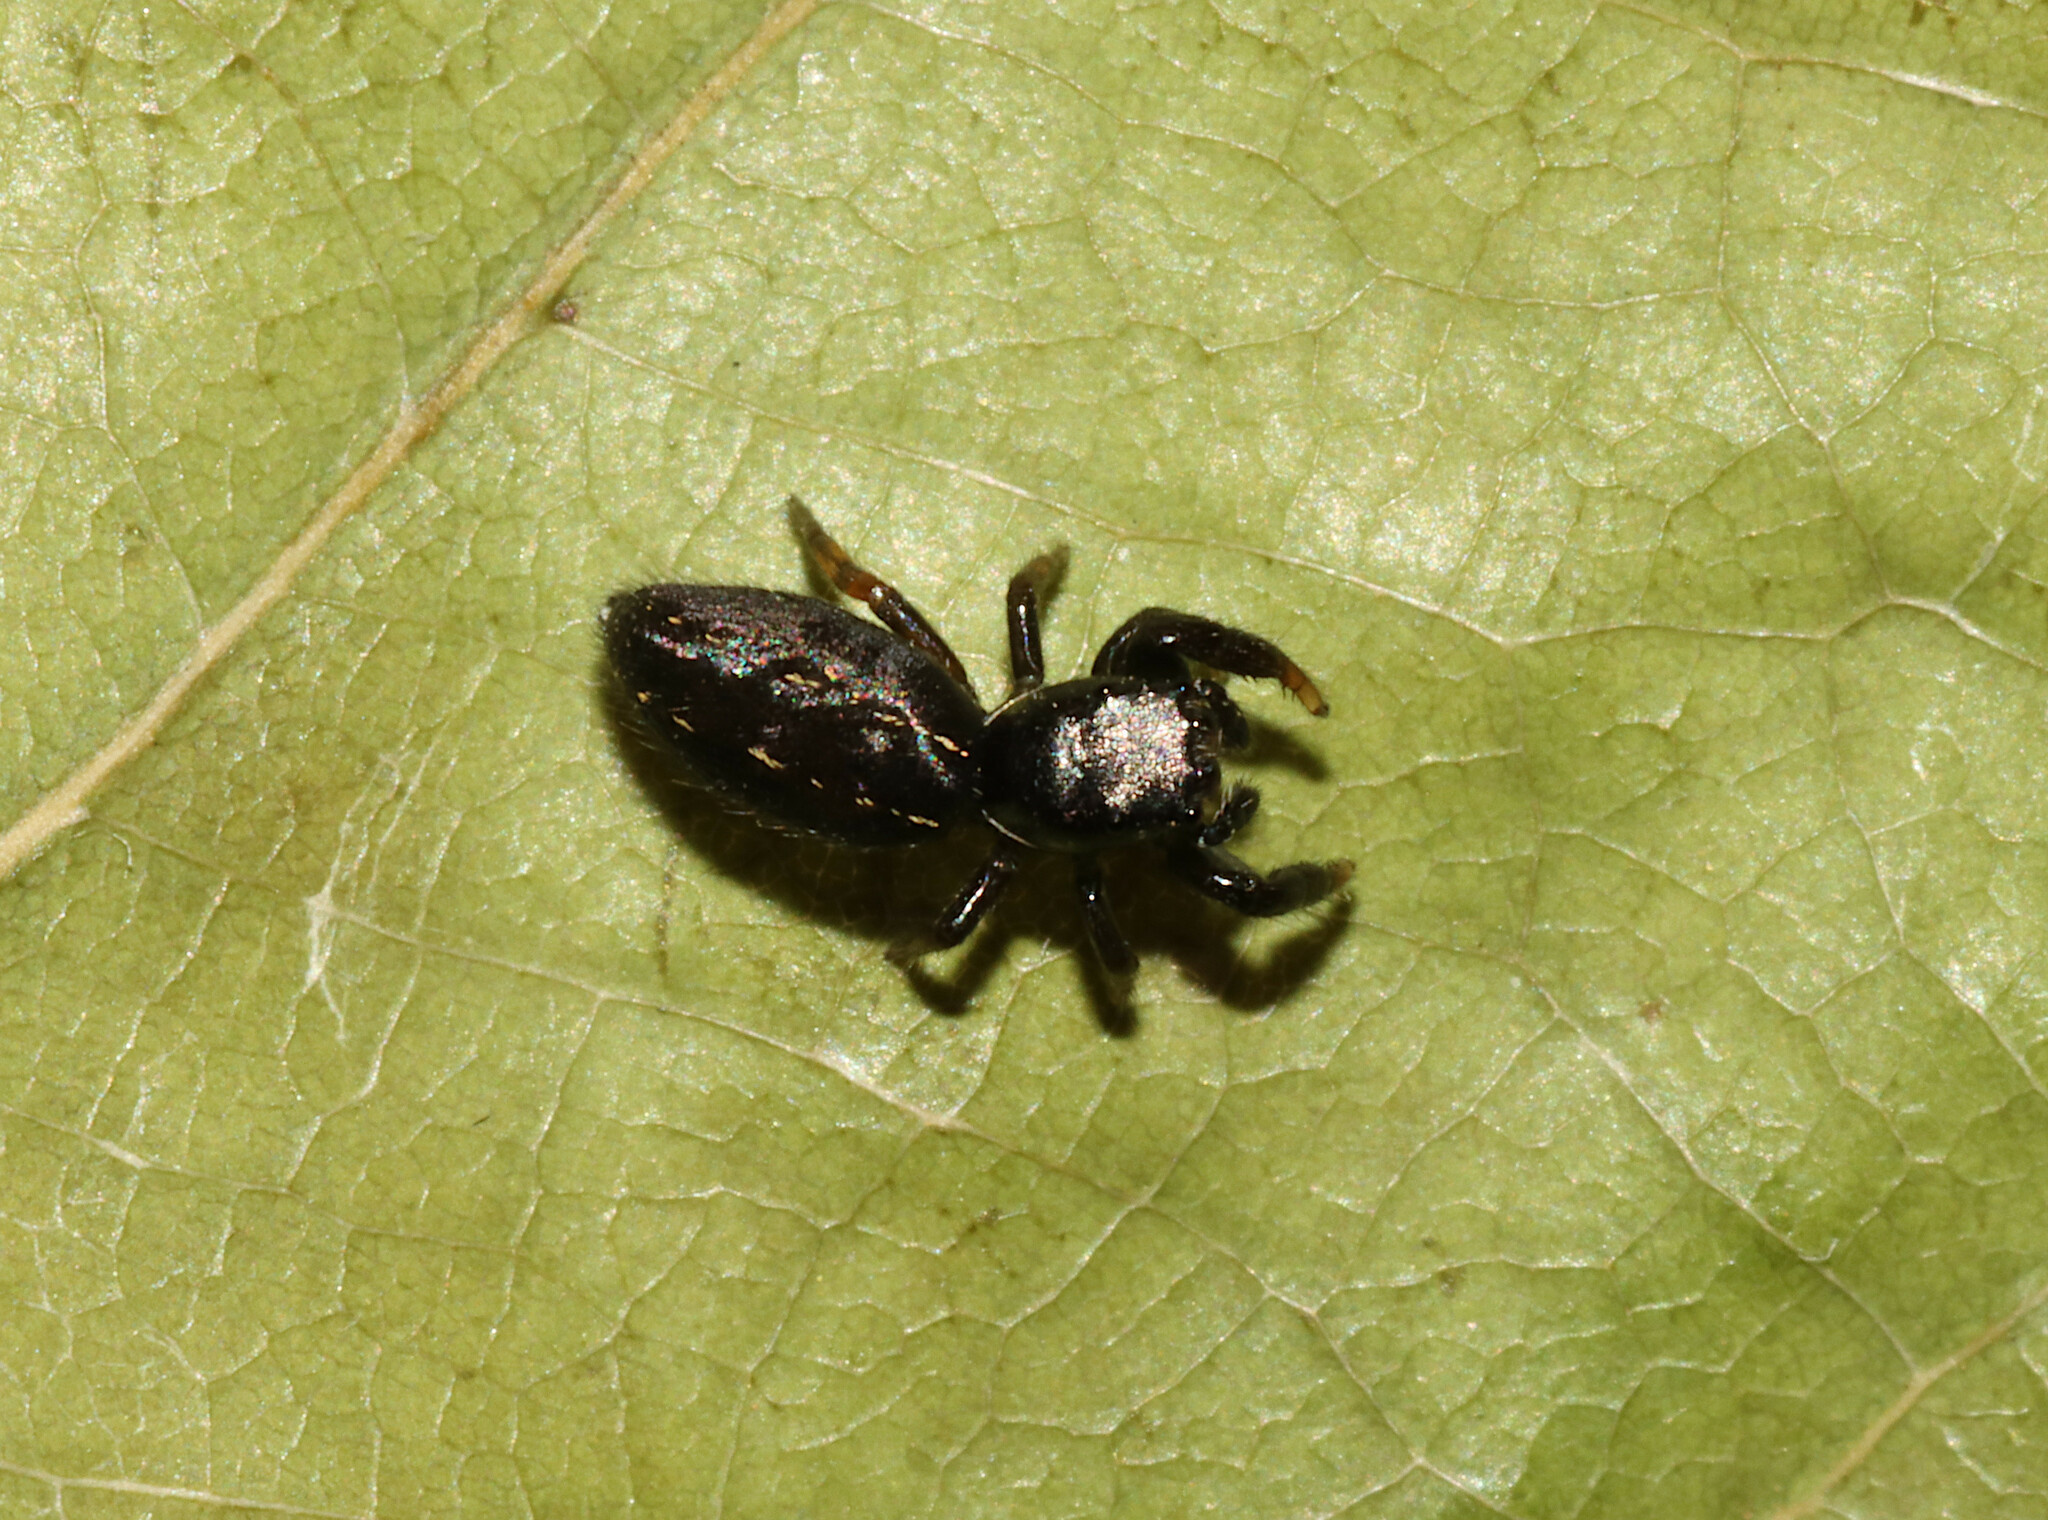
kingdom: Animalia
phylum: Arthropoda
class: Arachnida
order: Araneae
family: Salticidae
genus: Metacyrba
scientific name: Metacyrba taeniola
